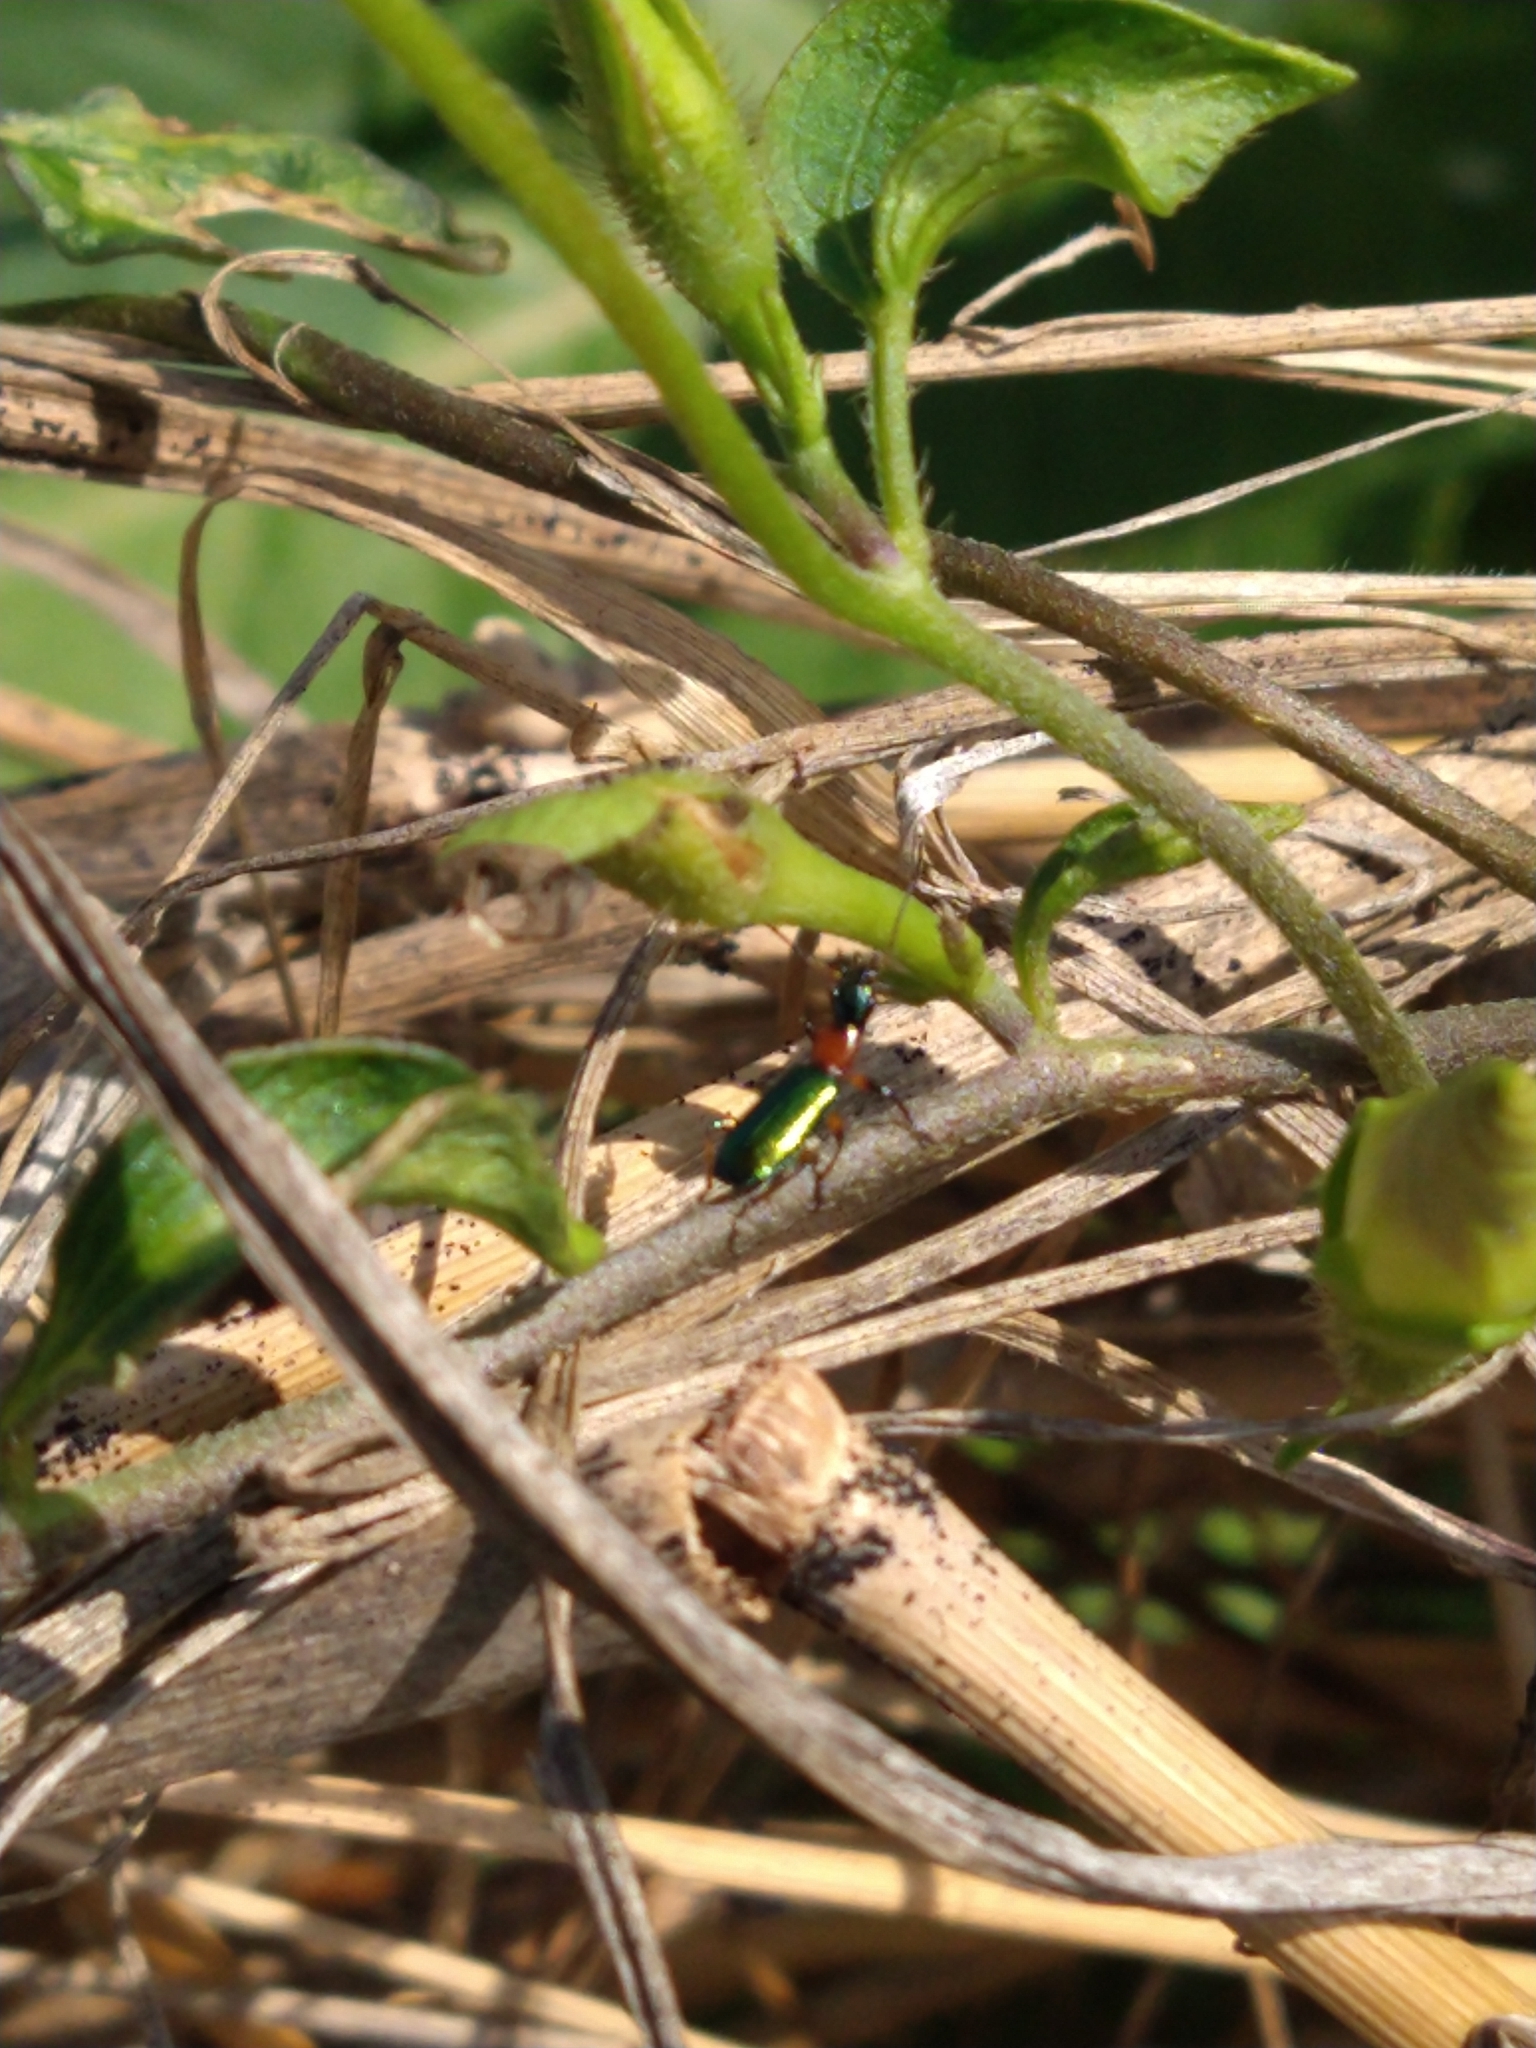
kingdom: Animalia
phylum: Arthropoda
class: Insecta
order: Coleoptera
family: Carabidae
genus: Calleida
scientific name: Calleida punctata
